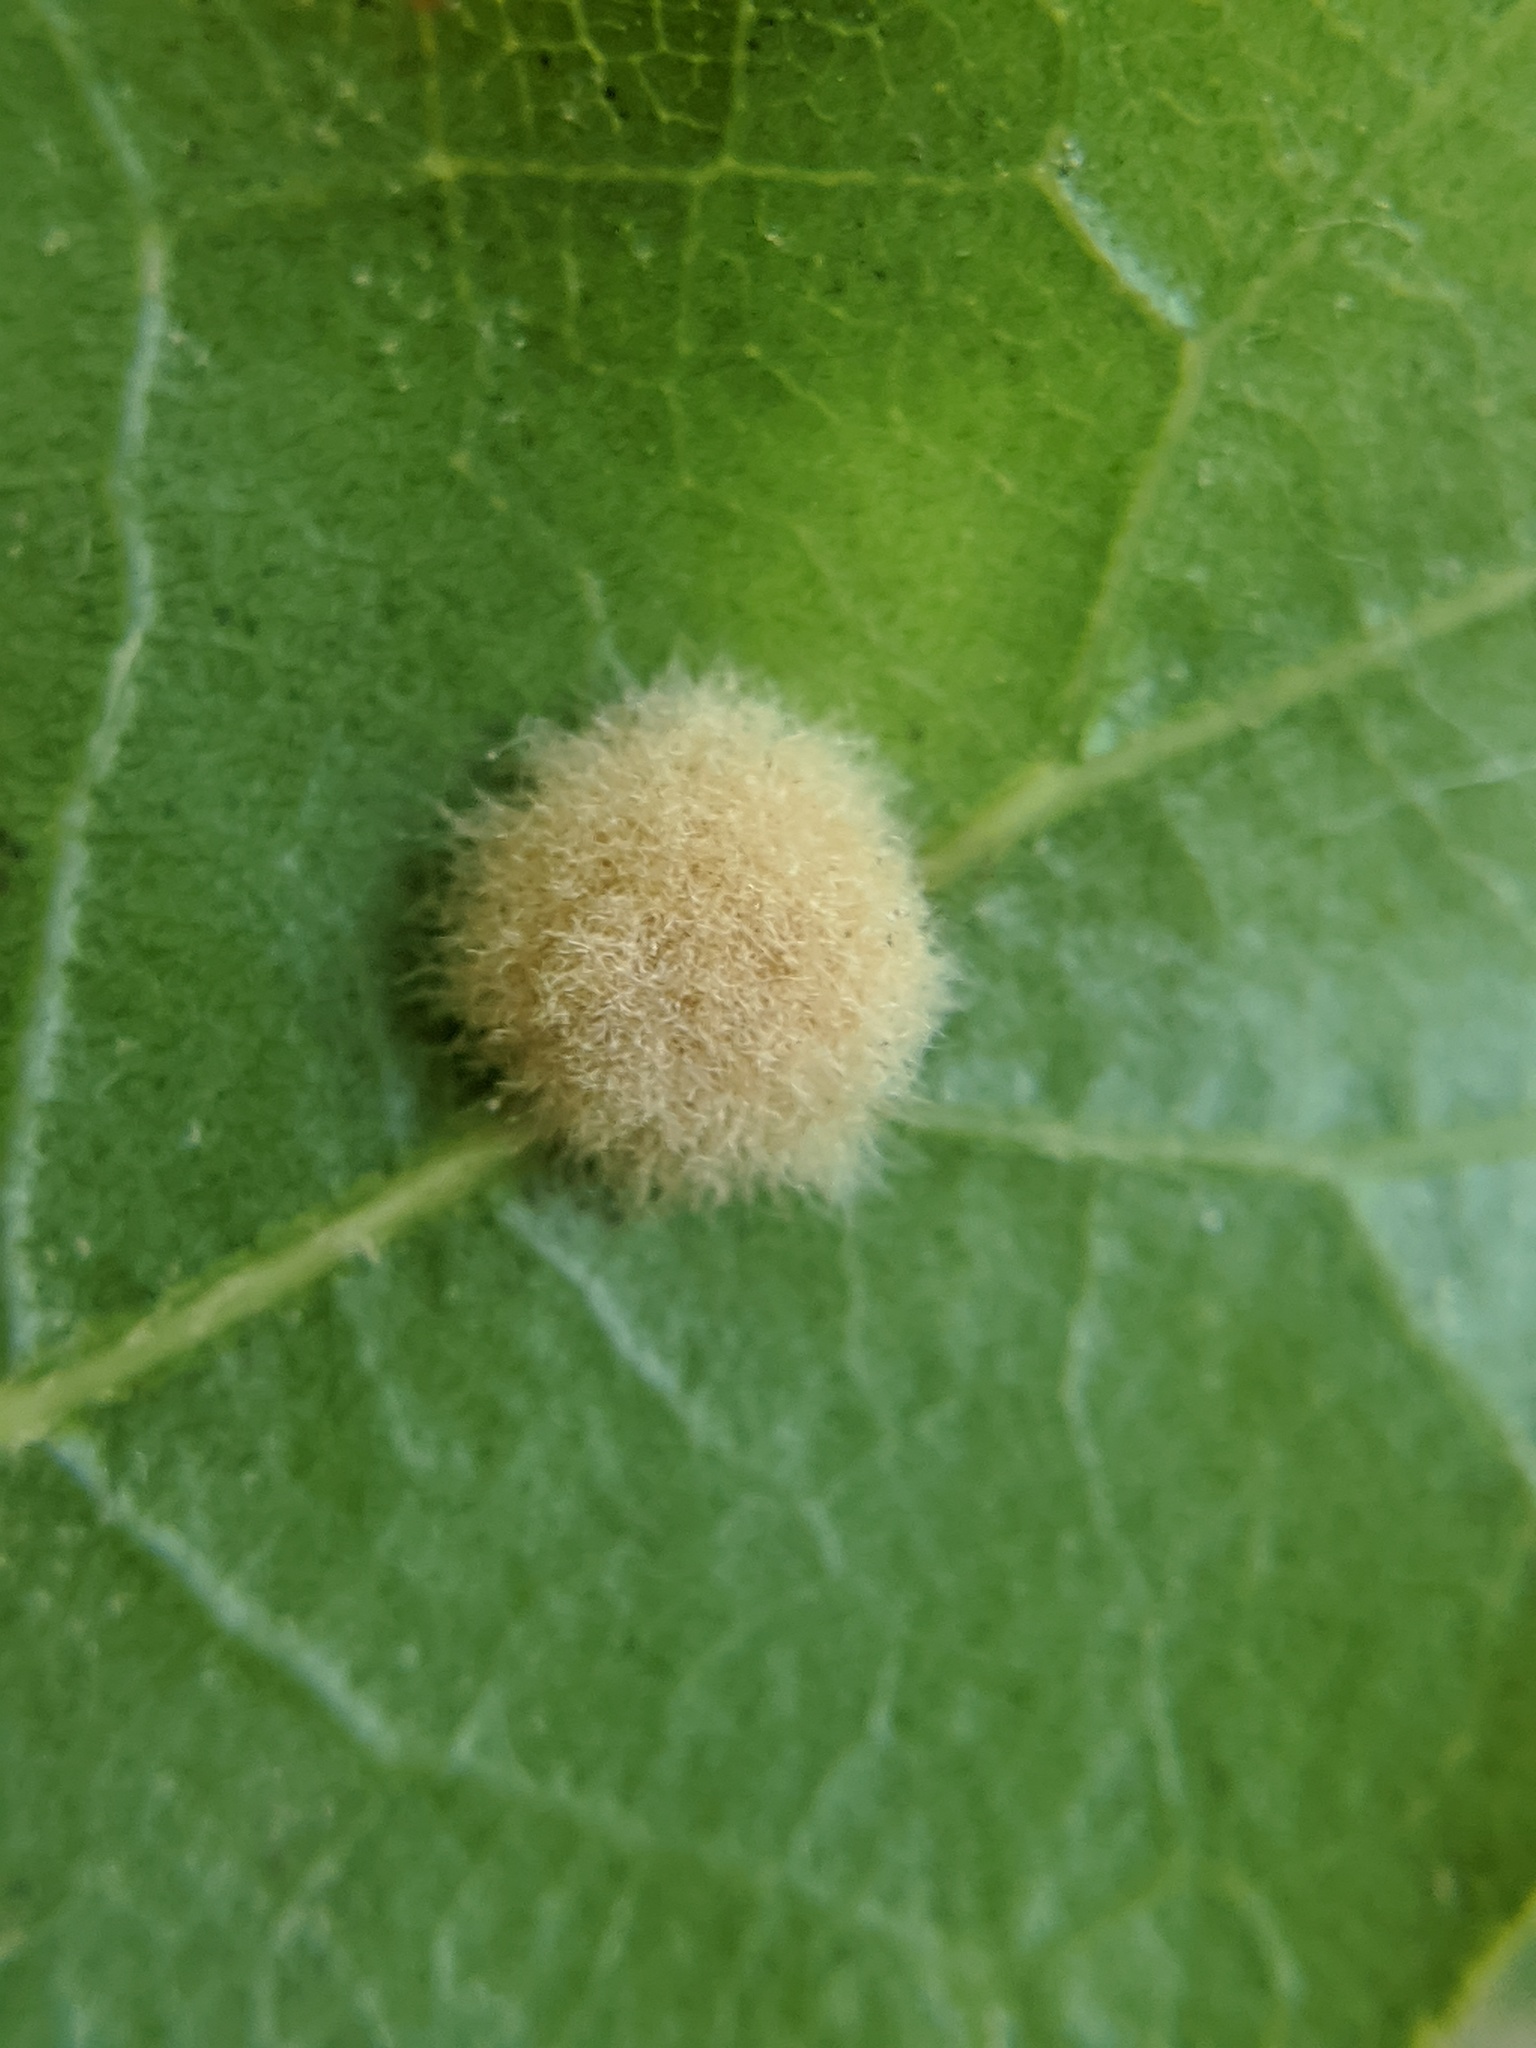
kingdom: Animalia
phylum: Arthropoda
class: Insecta
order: Hymenoptera
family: Cynipidae
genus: Callirhytis
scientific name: Callirhytis
